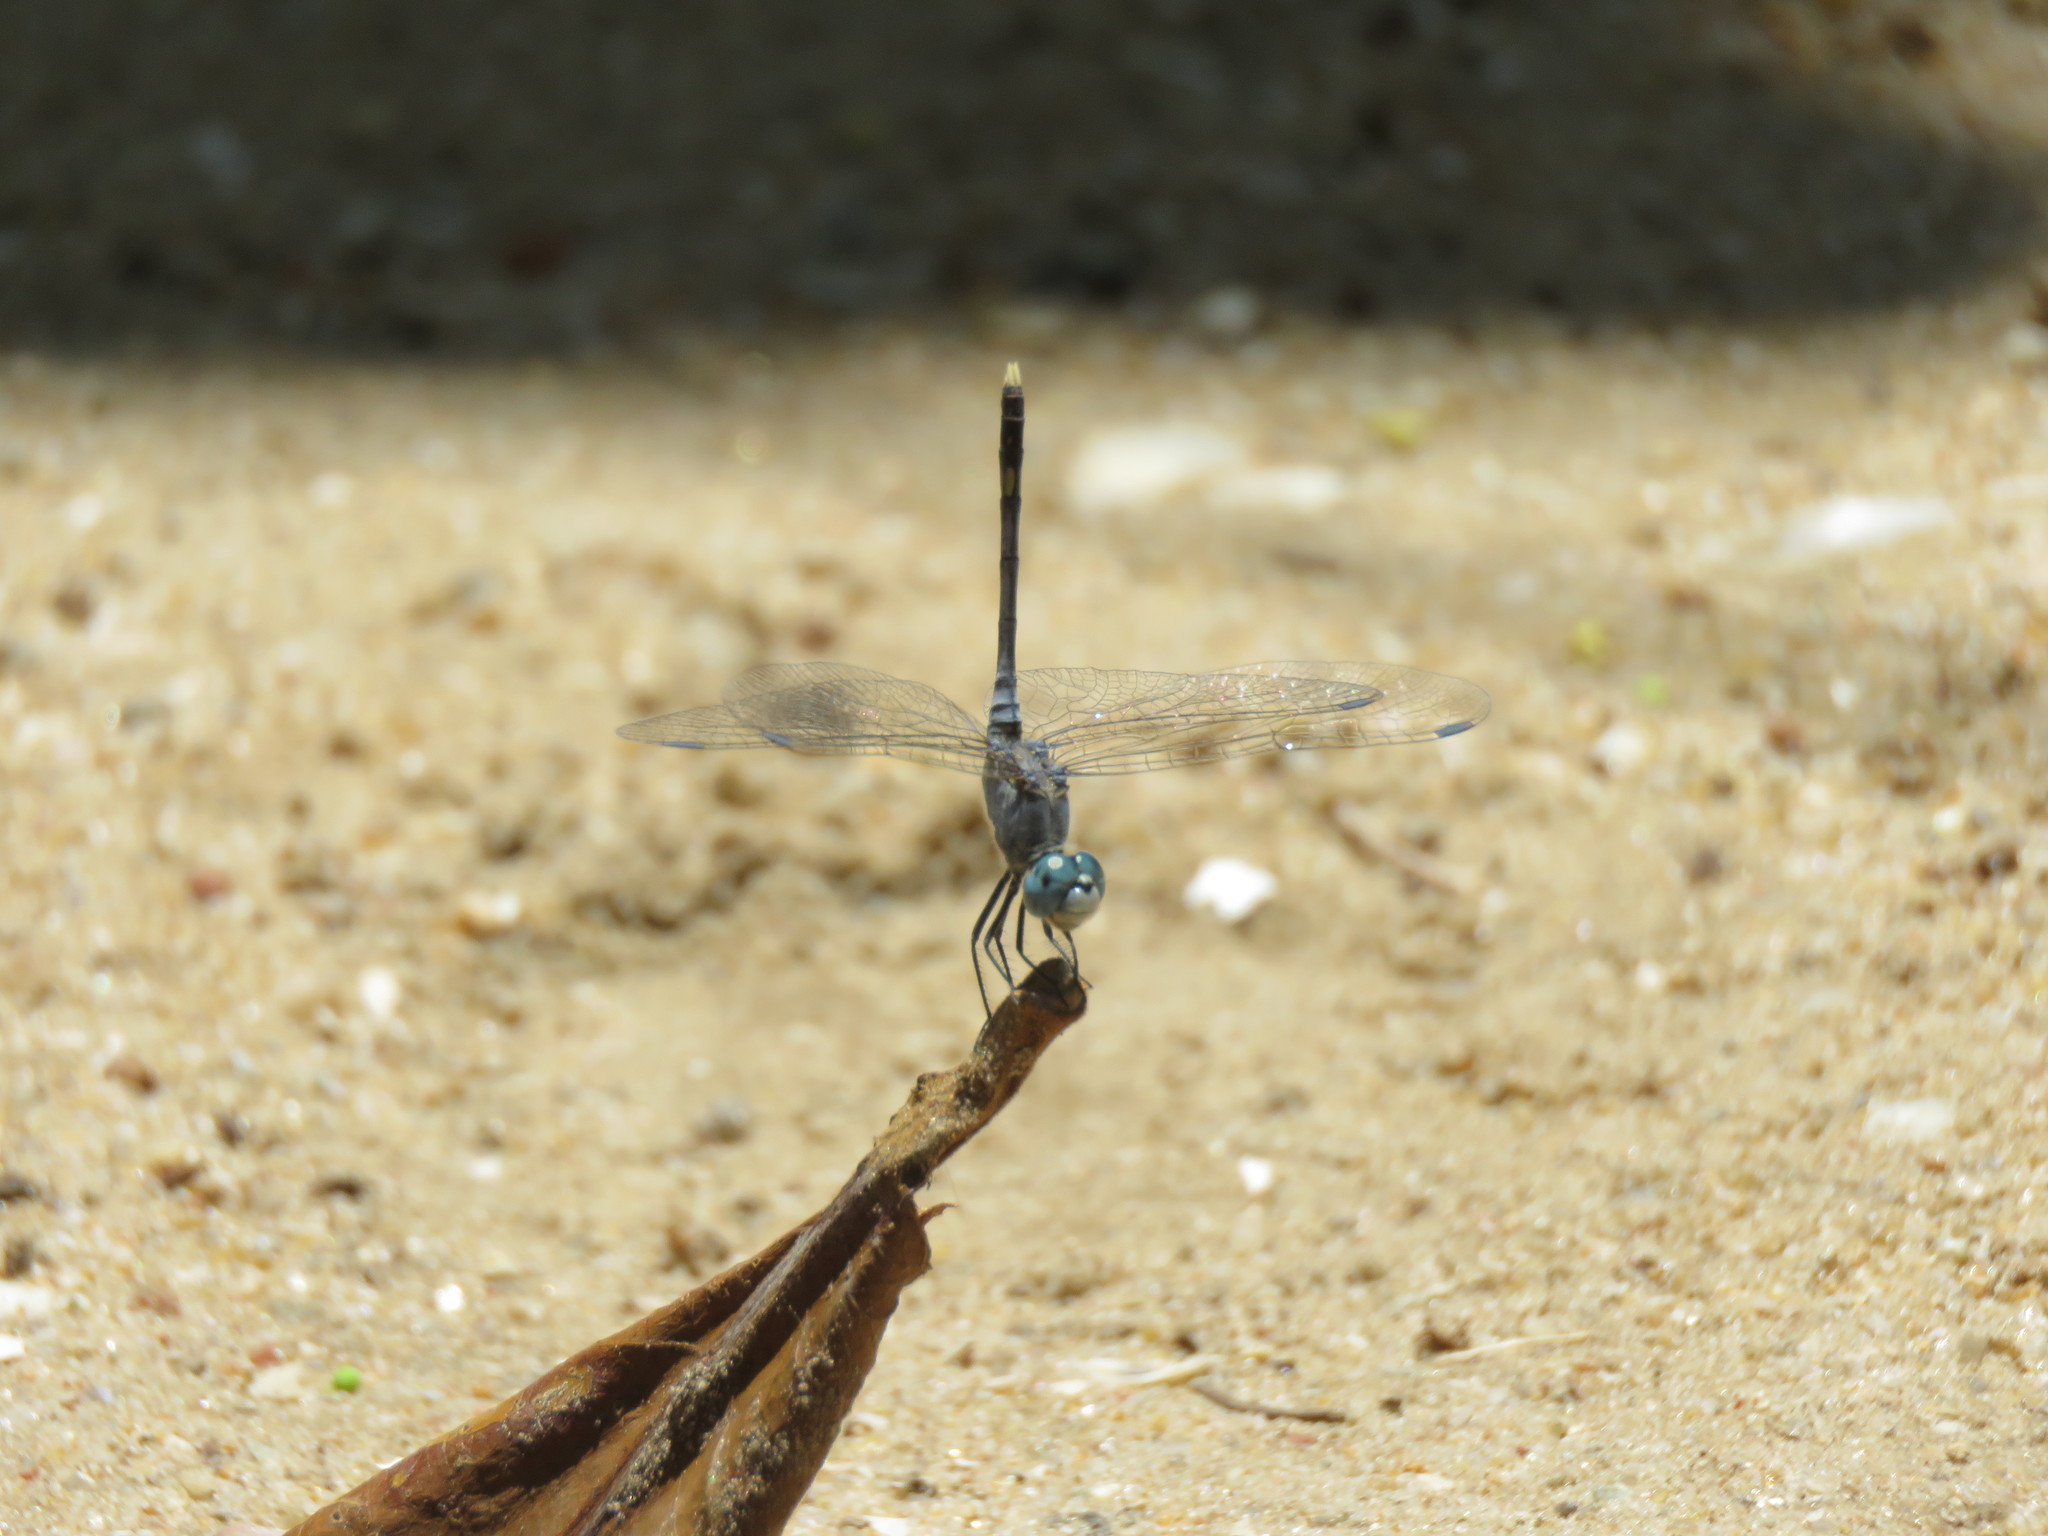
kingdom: Animalia
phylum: Arthropoda
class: Insecta
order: Odonata
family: Libellulidae
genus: Diplacodes
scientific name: Diplacodes trivialis
